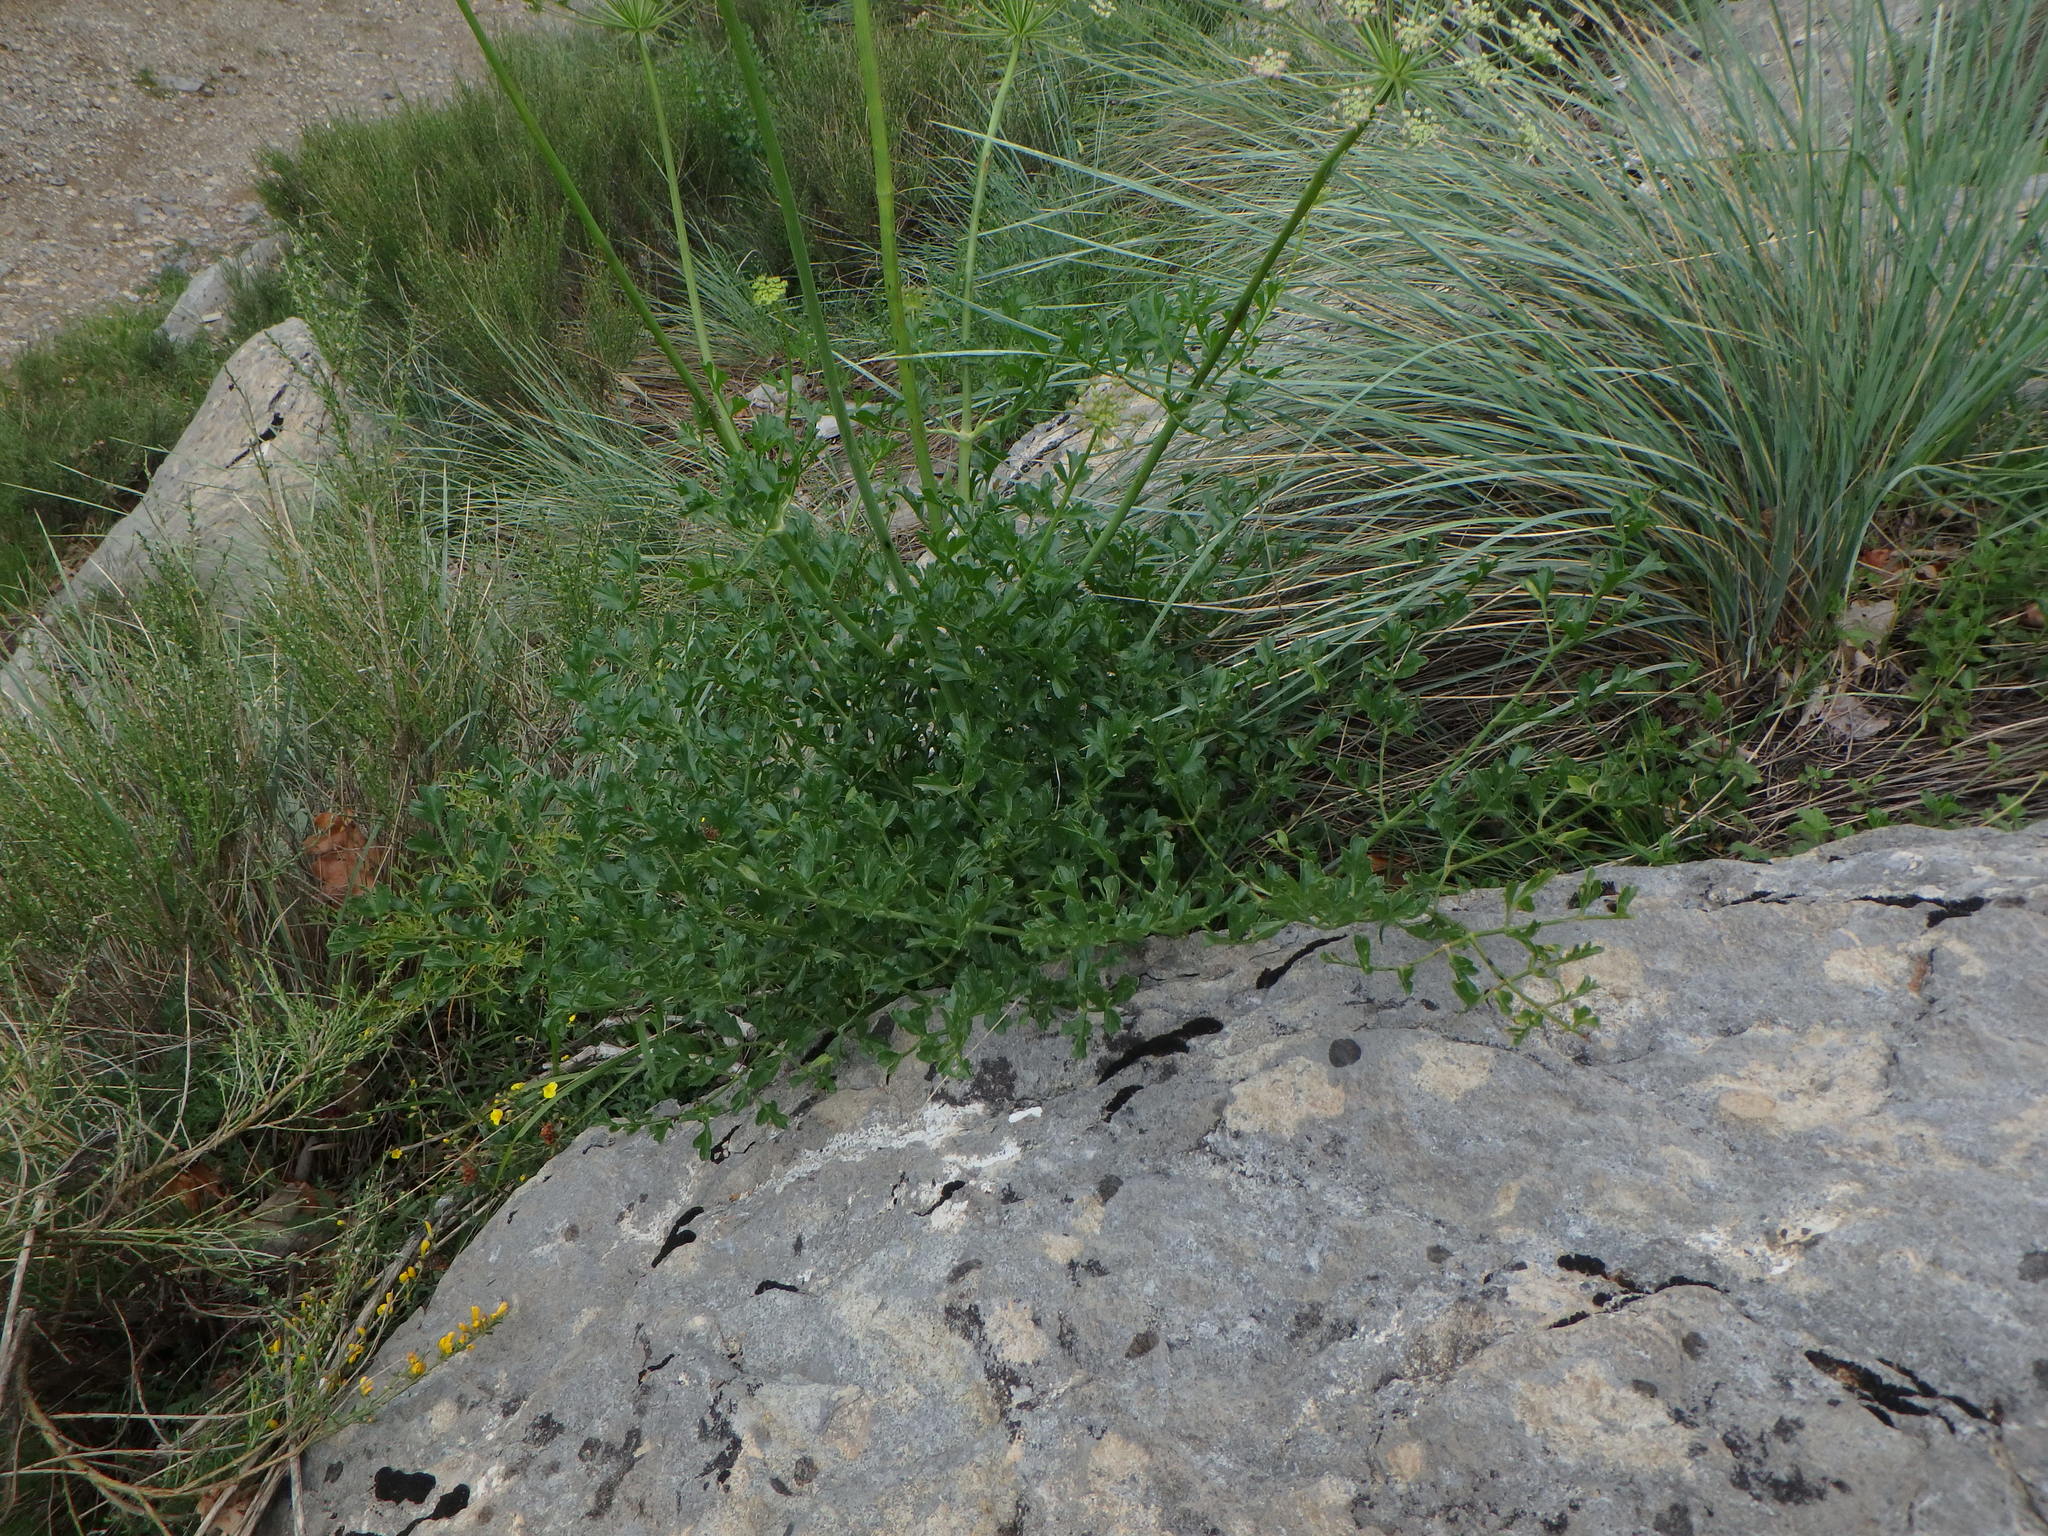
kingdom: Plantae
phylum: Tracheophyta
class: Magnoliopsida
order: Apiales
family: Apiaceae
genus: Laserpitium
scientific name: Laserpitium gallicum
